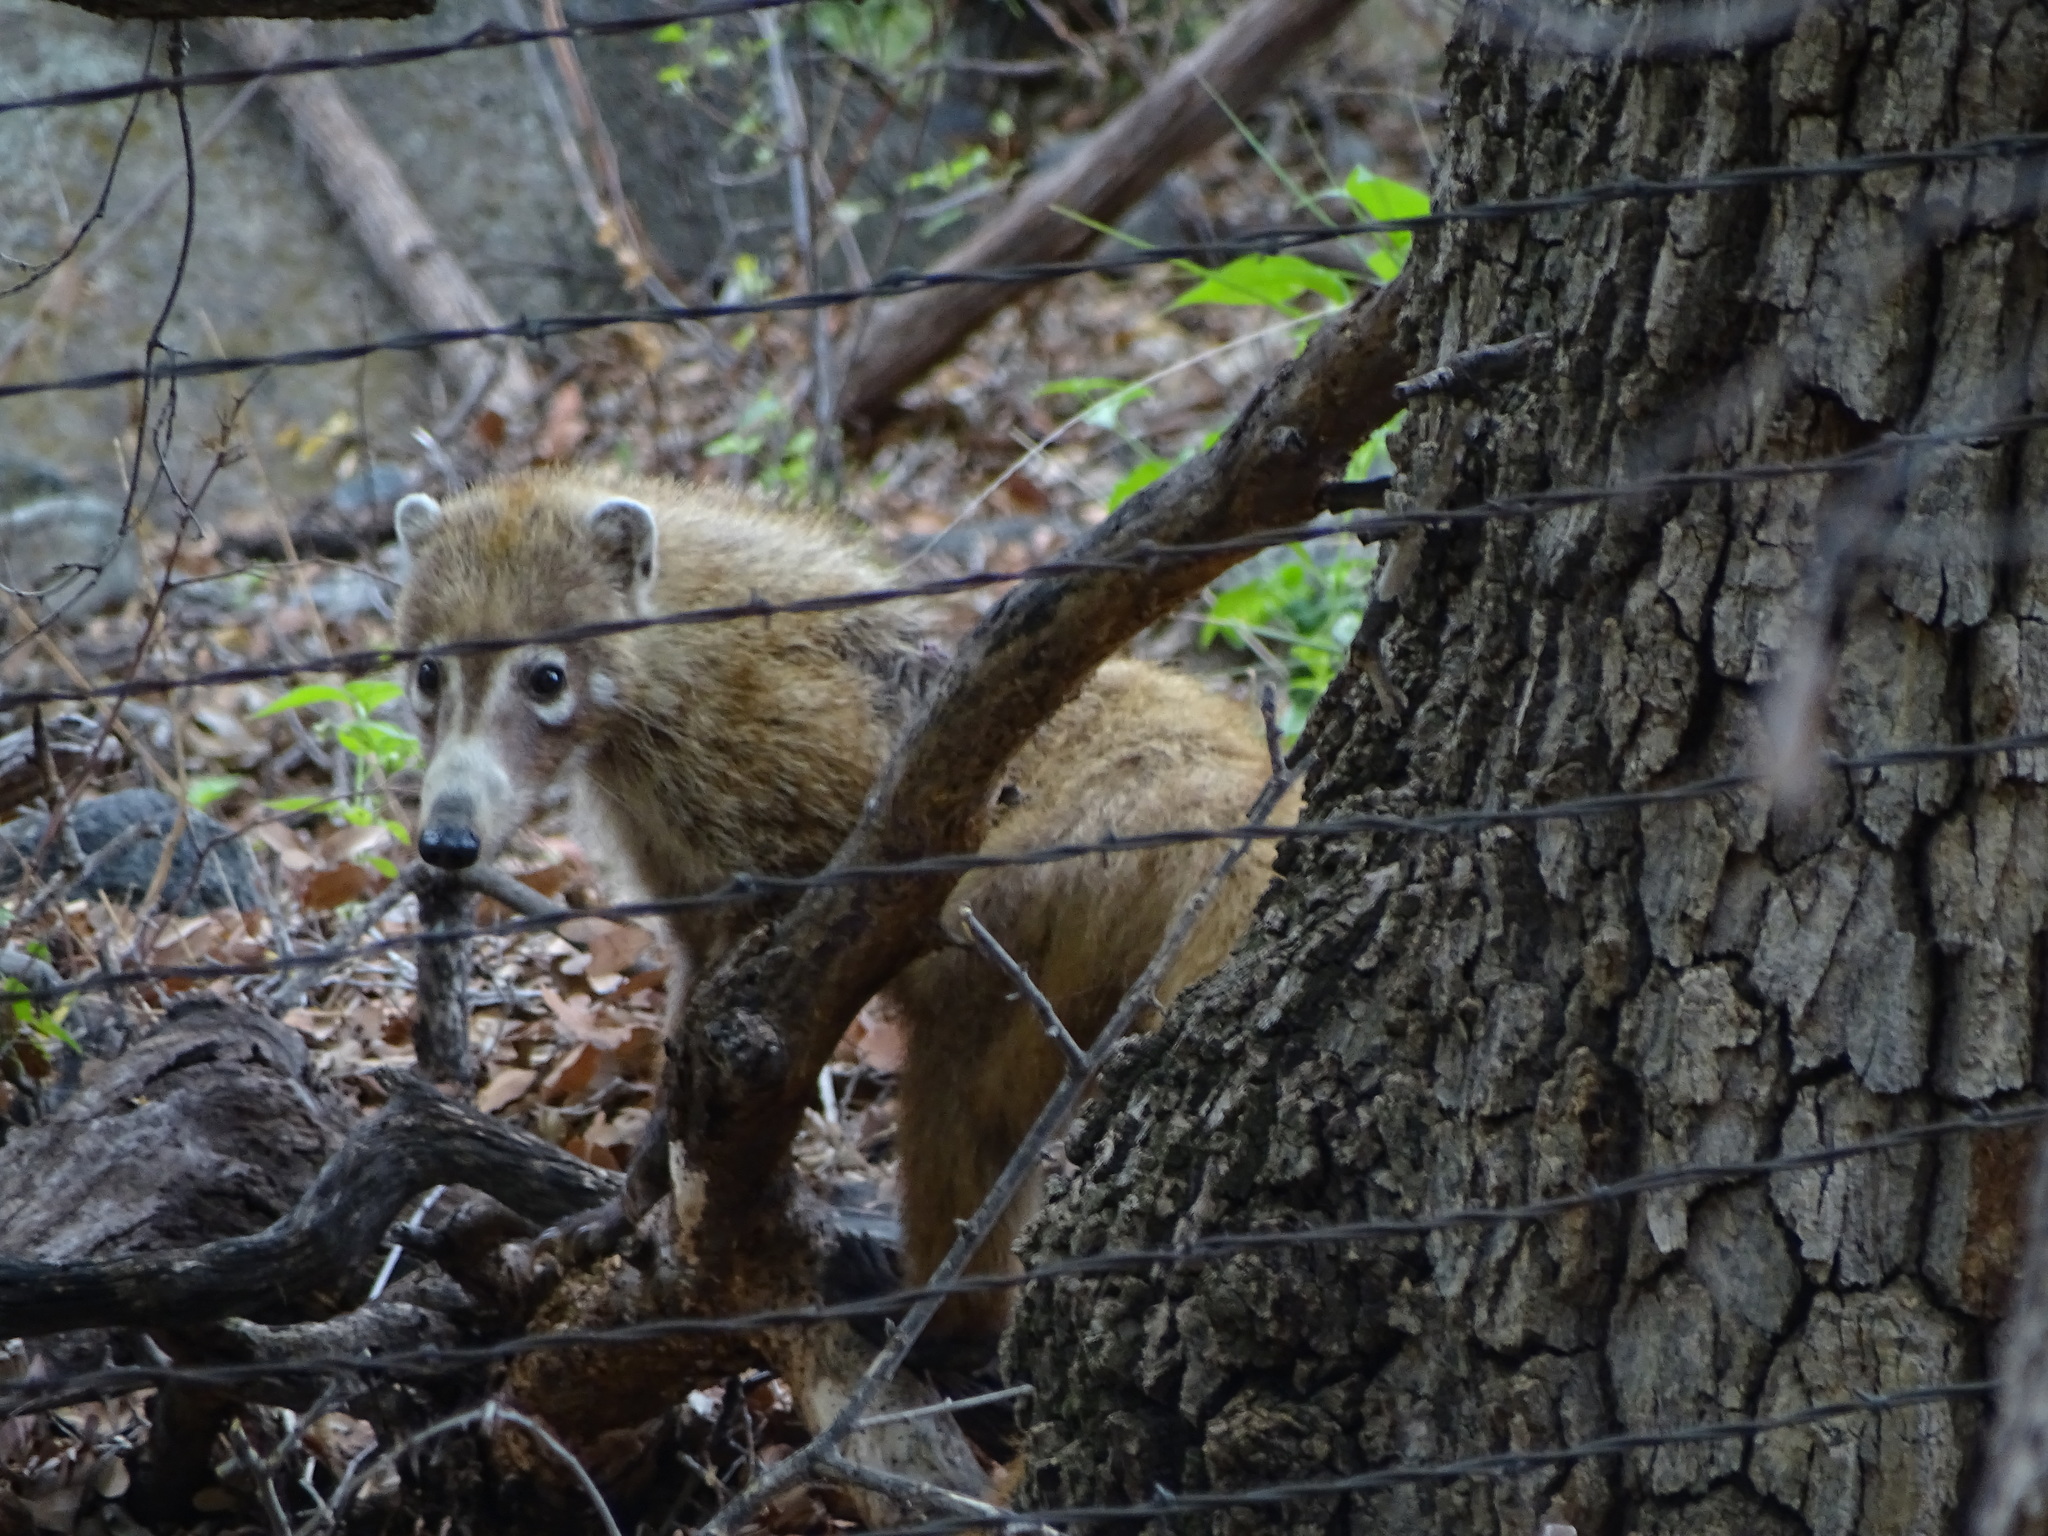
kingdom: Animalia
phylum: Chordata
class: Mammalia
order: Carnivora
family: Procyonidae
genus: Nasua
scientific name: Nasua narica
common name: White-nosed coati
